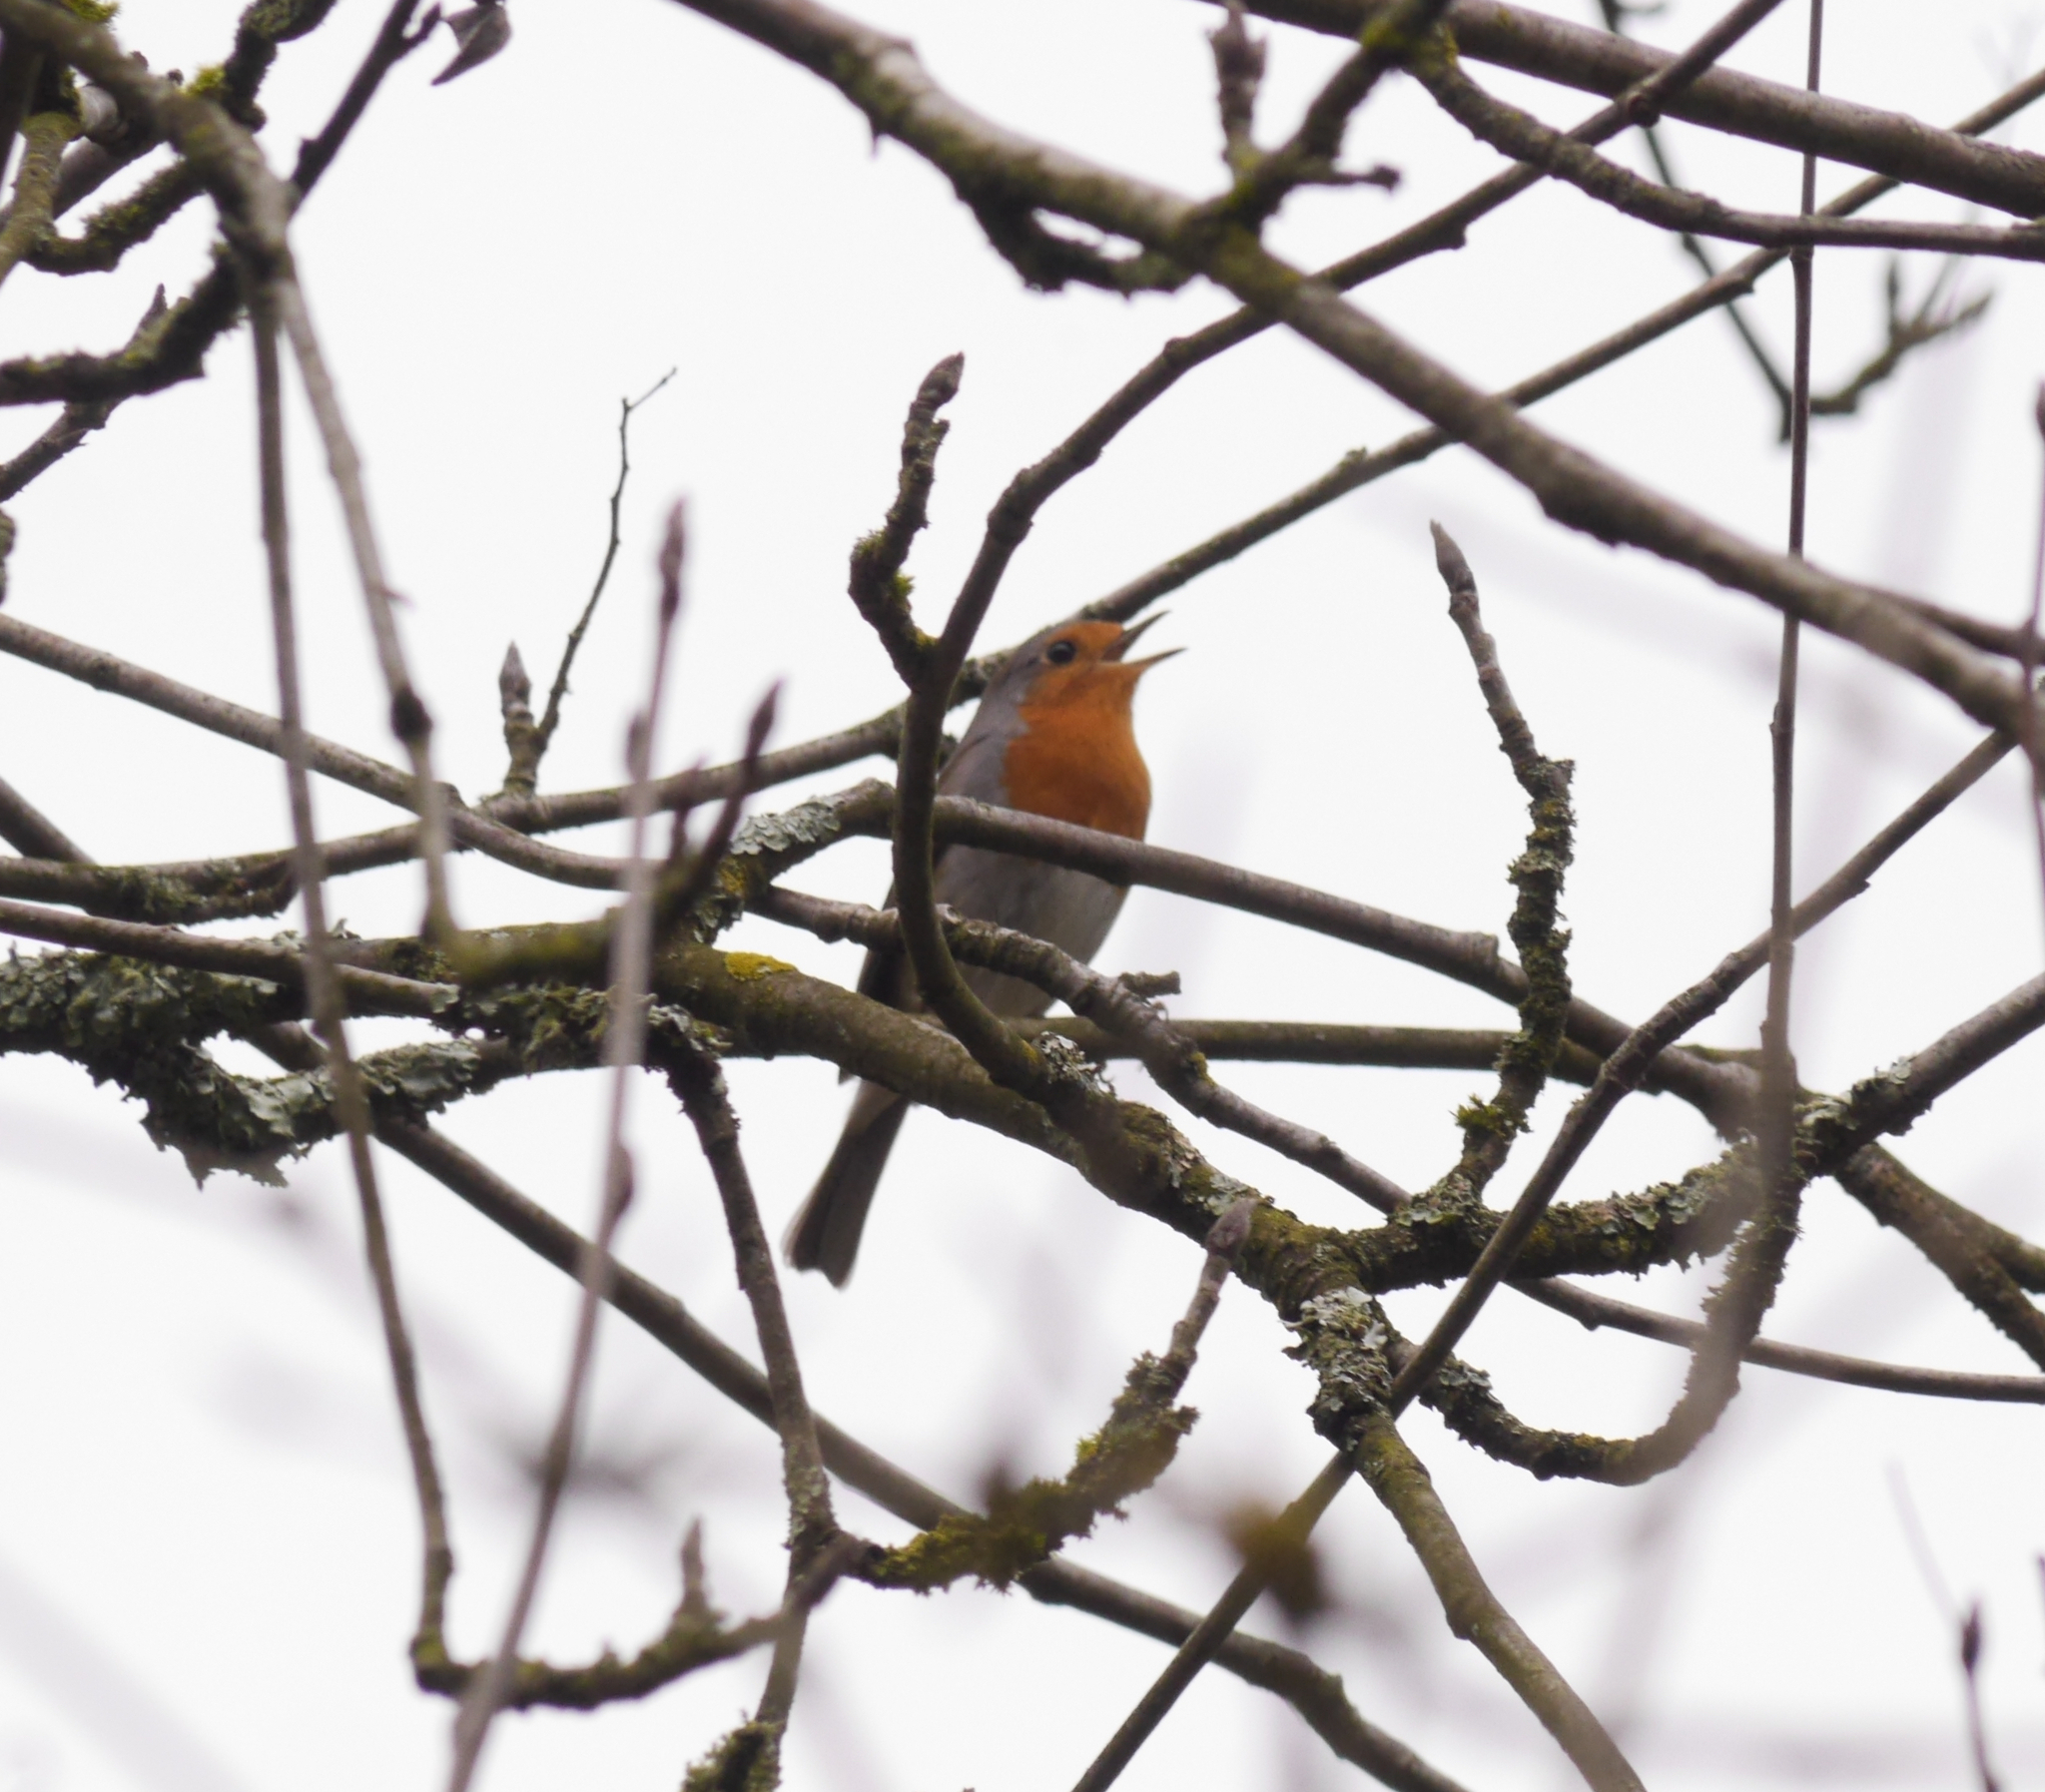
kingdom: Animalia
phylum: Chordata
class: Aves
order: Passeriformes
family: Muscicapidae
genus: Erithacus
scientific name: Erithacus rubecula
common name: European robin
